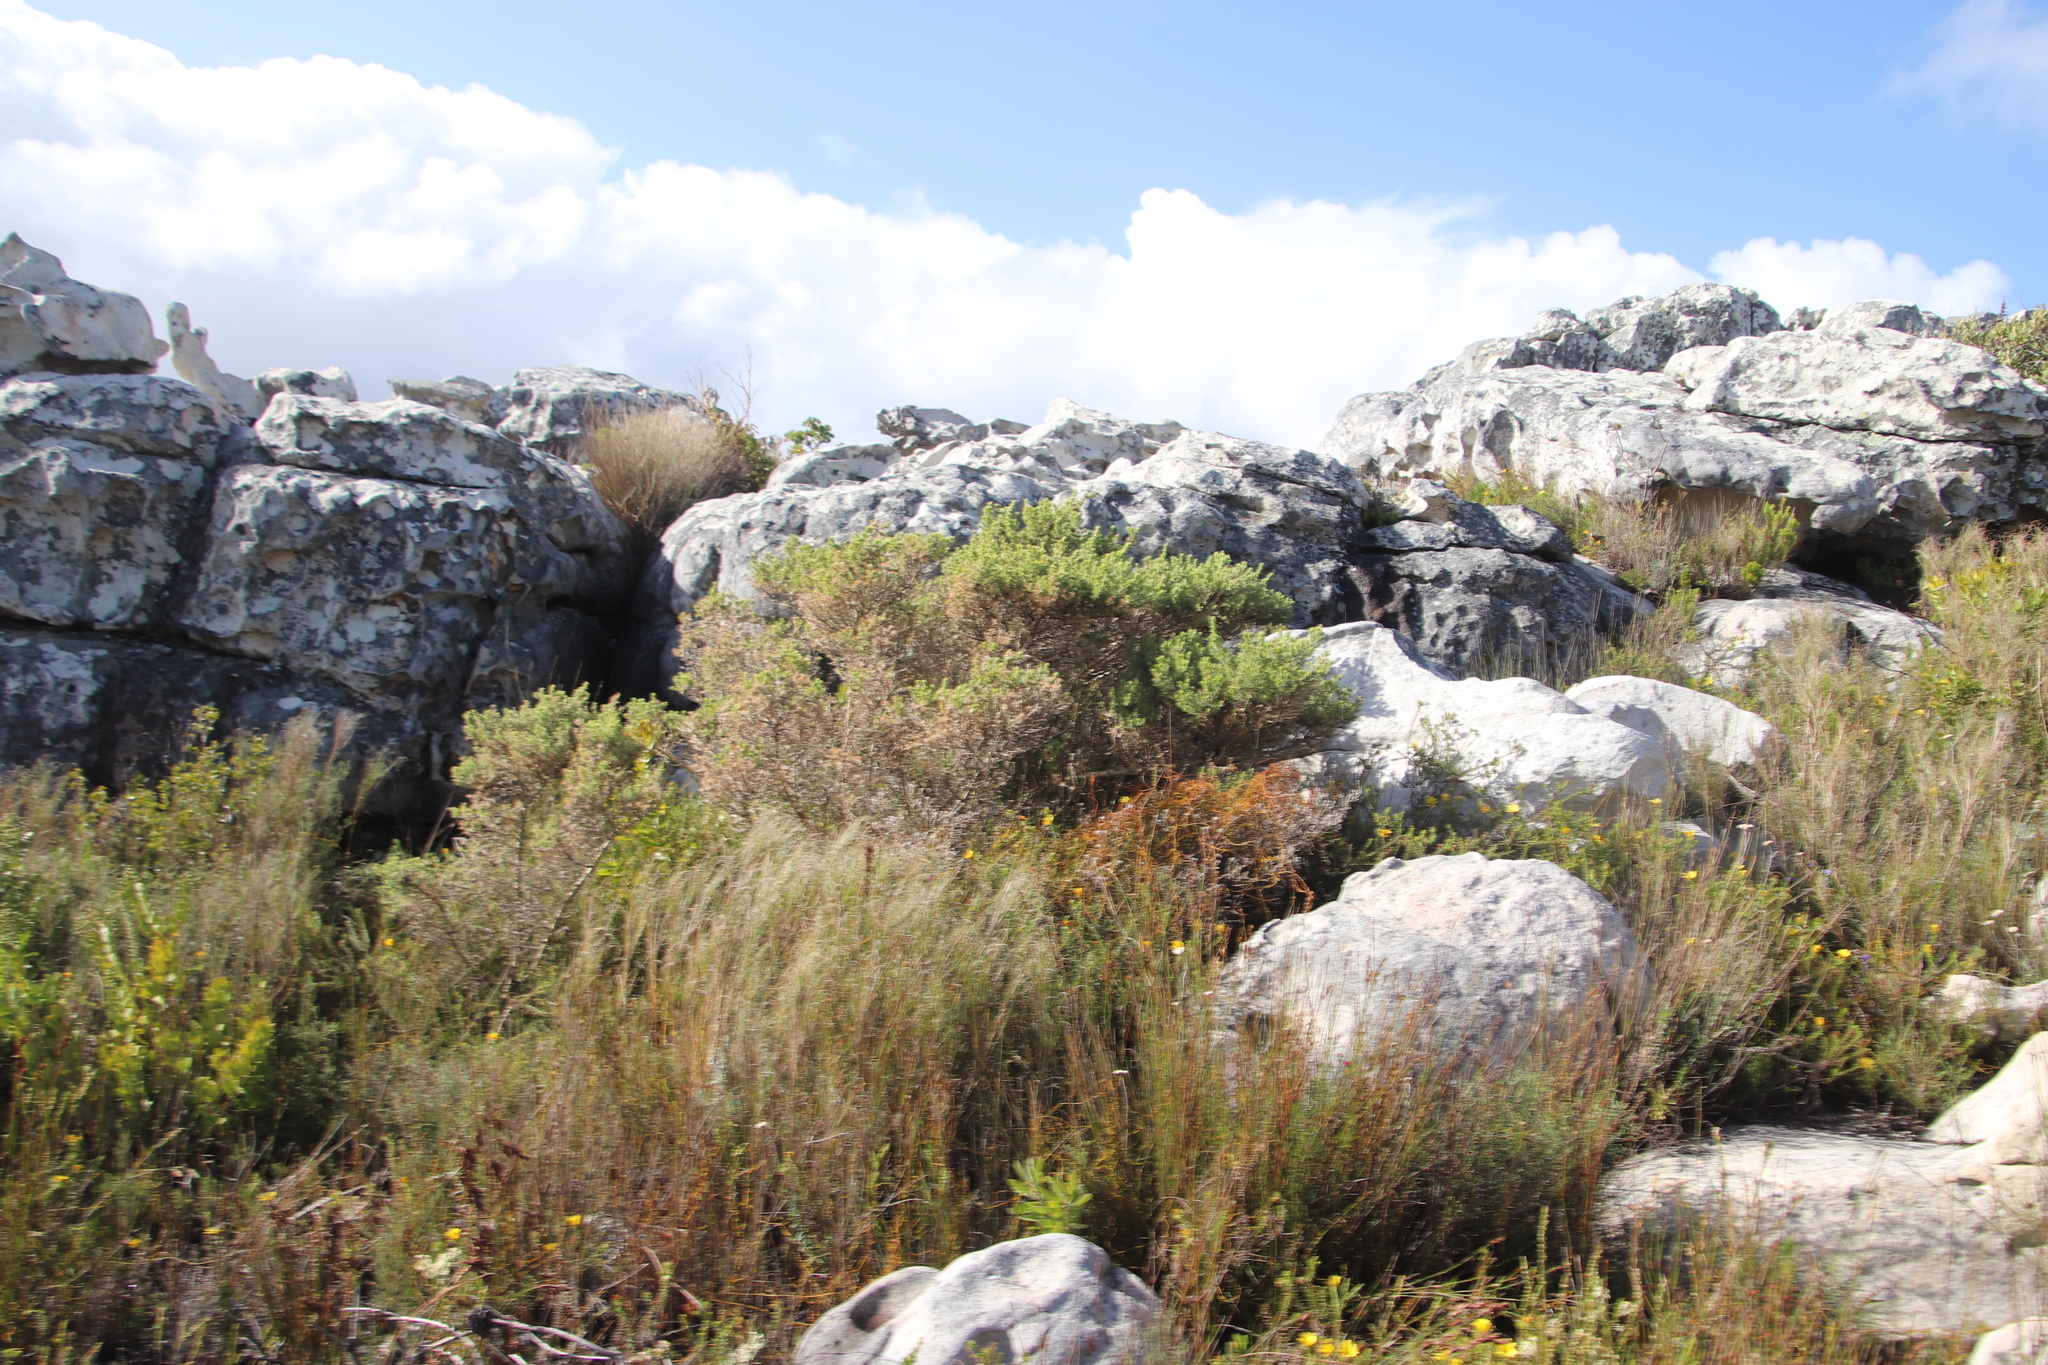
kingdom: Plantae
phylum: Tracheophyta
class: Liliopsida
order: Poales
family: Poaceae
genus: Pseudopentameris
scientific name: Pseudopentameris macrantha
